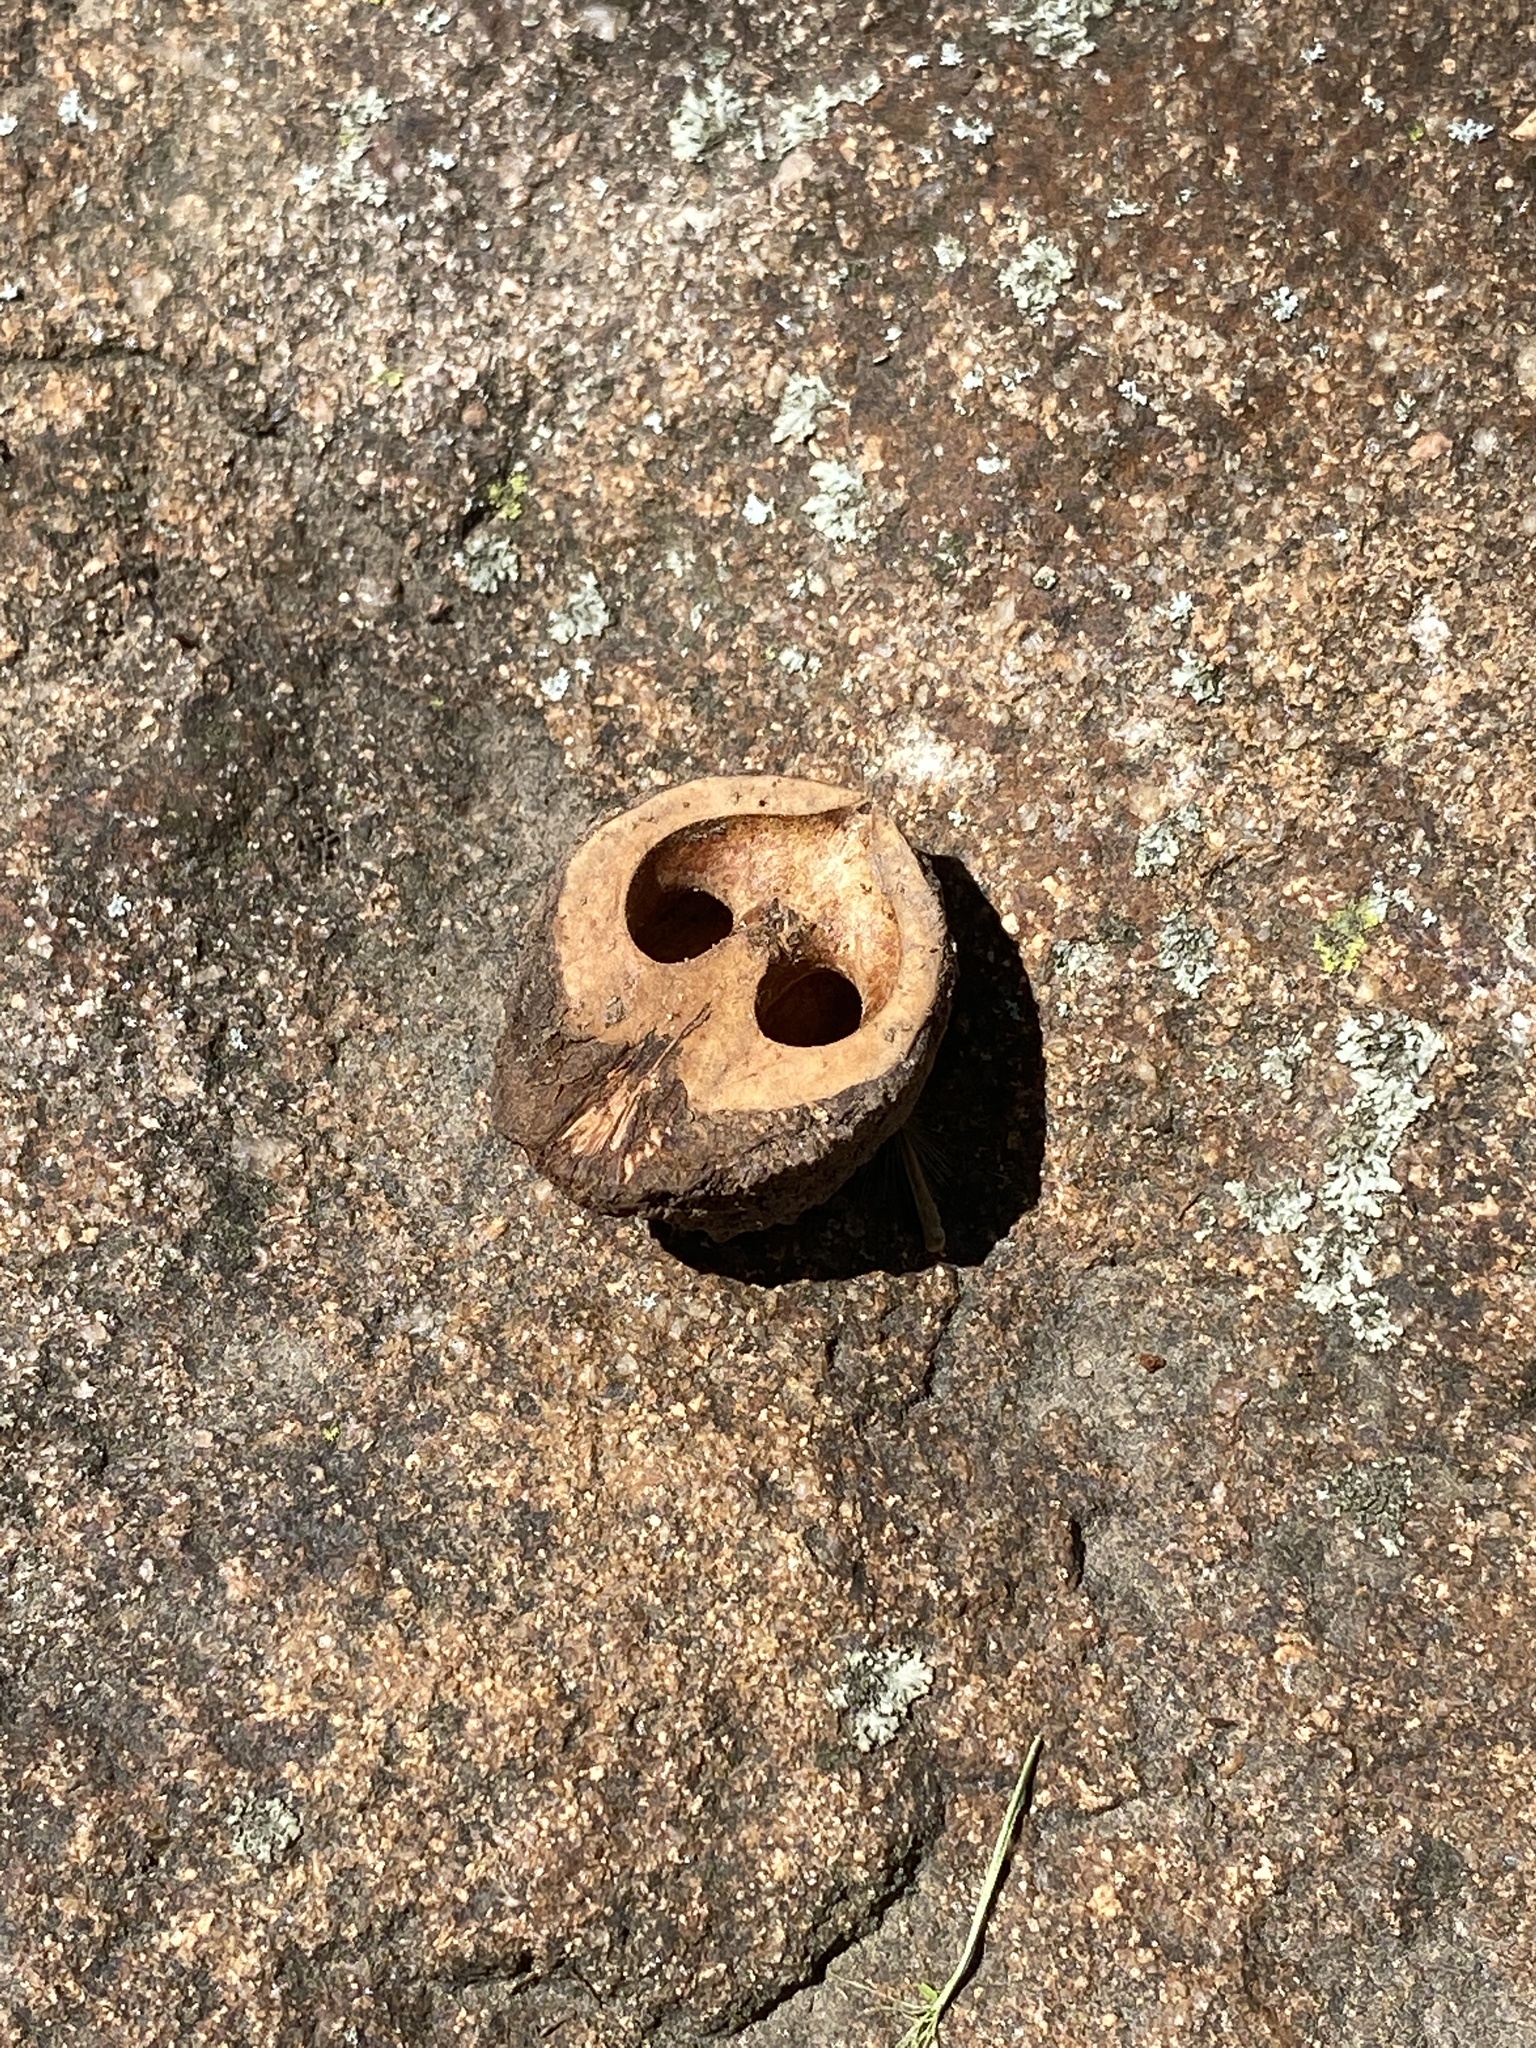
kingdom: Plantae
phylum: Tracheophyta
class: Magnoliopsida
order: Fagales
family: Juglandaceae
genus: Juglans
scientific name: Juglans nigra
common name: Black walnut
